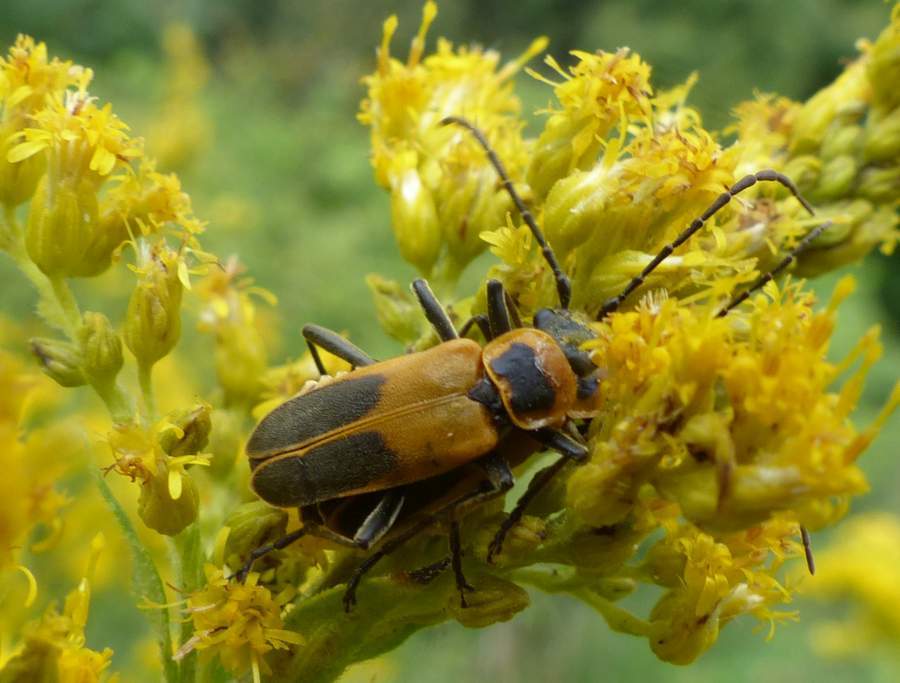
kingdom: Animalia
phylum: Arthropoda
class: Insecta
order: Coleoptera
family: Cantharidae
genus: Chauliognathus
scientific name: Chauliognathus pensylvanicus
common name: Goldenrod soldier beetle
